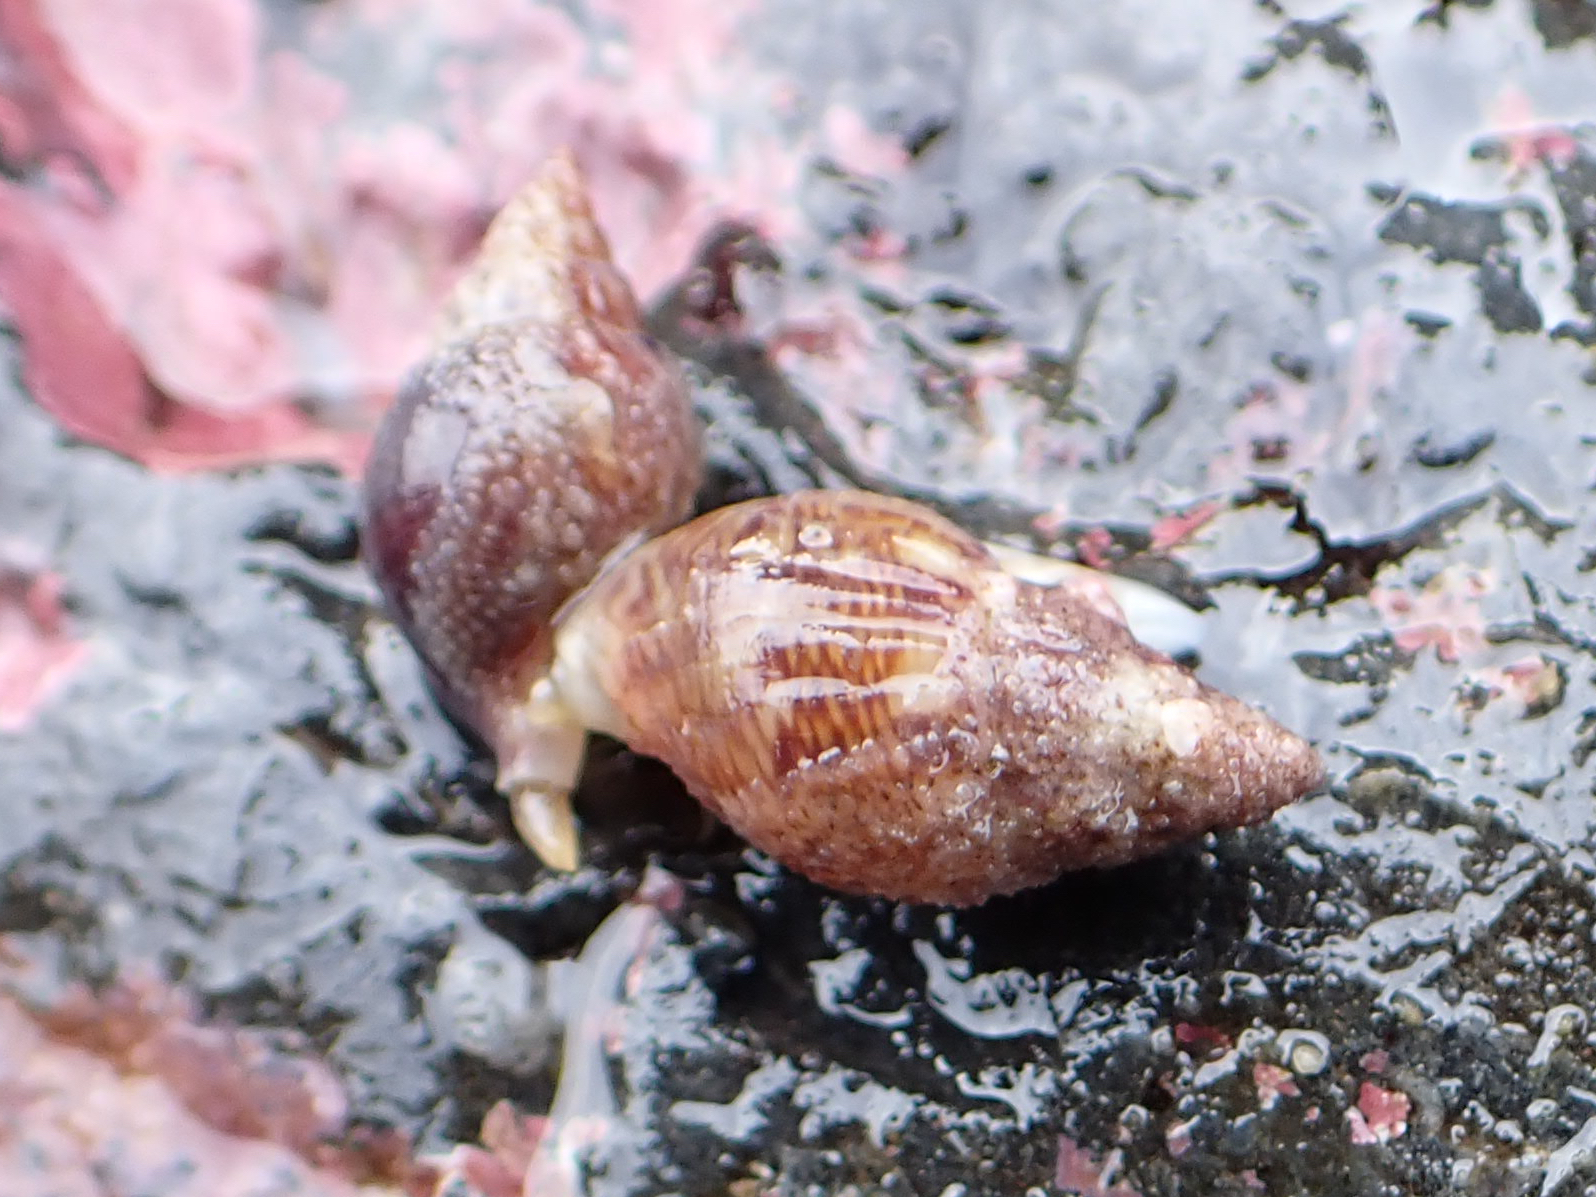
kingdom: Animalia
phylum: Mollusca
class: Gastropoda
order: Neogastropoda
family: Columbellidae
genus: Amphissa
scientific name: Amphissa columbiana
